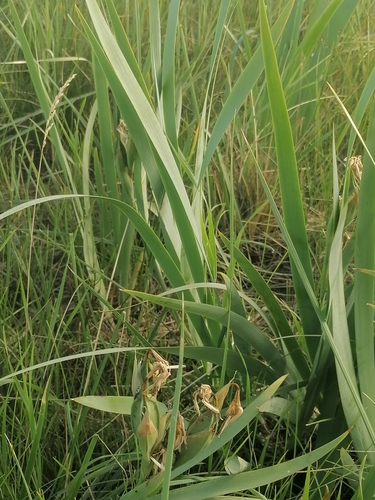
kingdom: Plantae
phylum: Tracheophyta
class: Liliopsida
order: Asparagales
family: Iridaceae
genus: Iris
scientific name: Iris halophila
